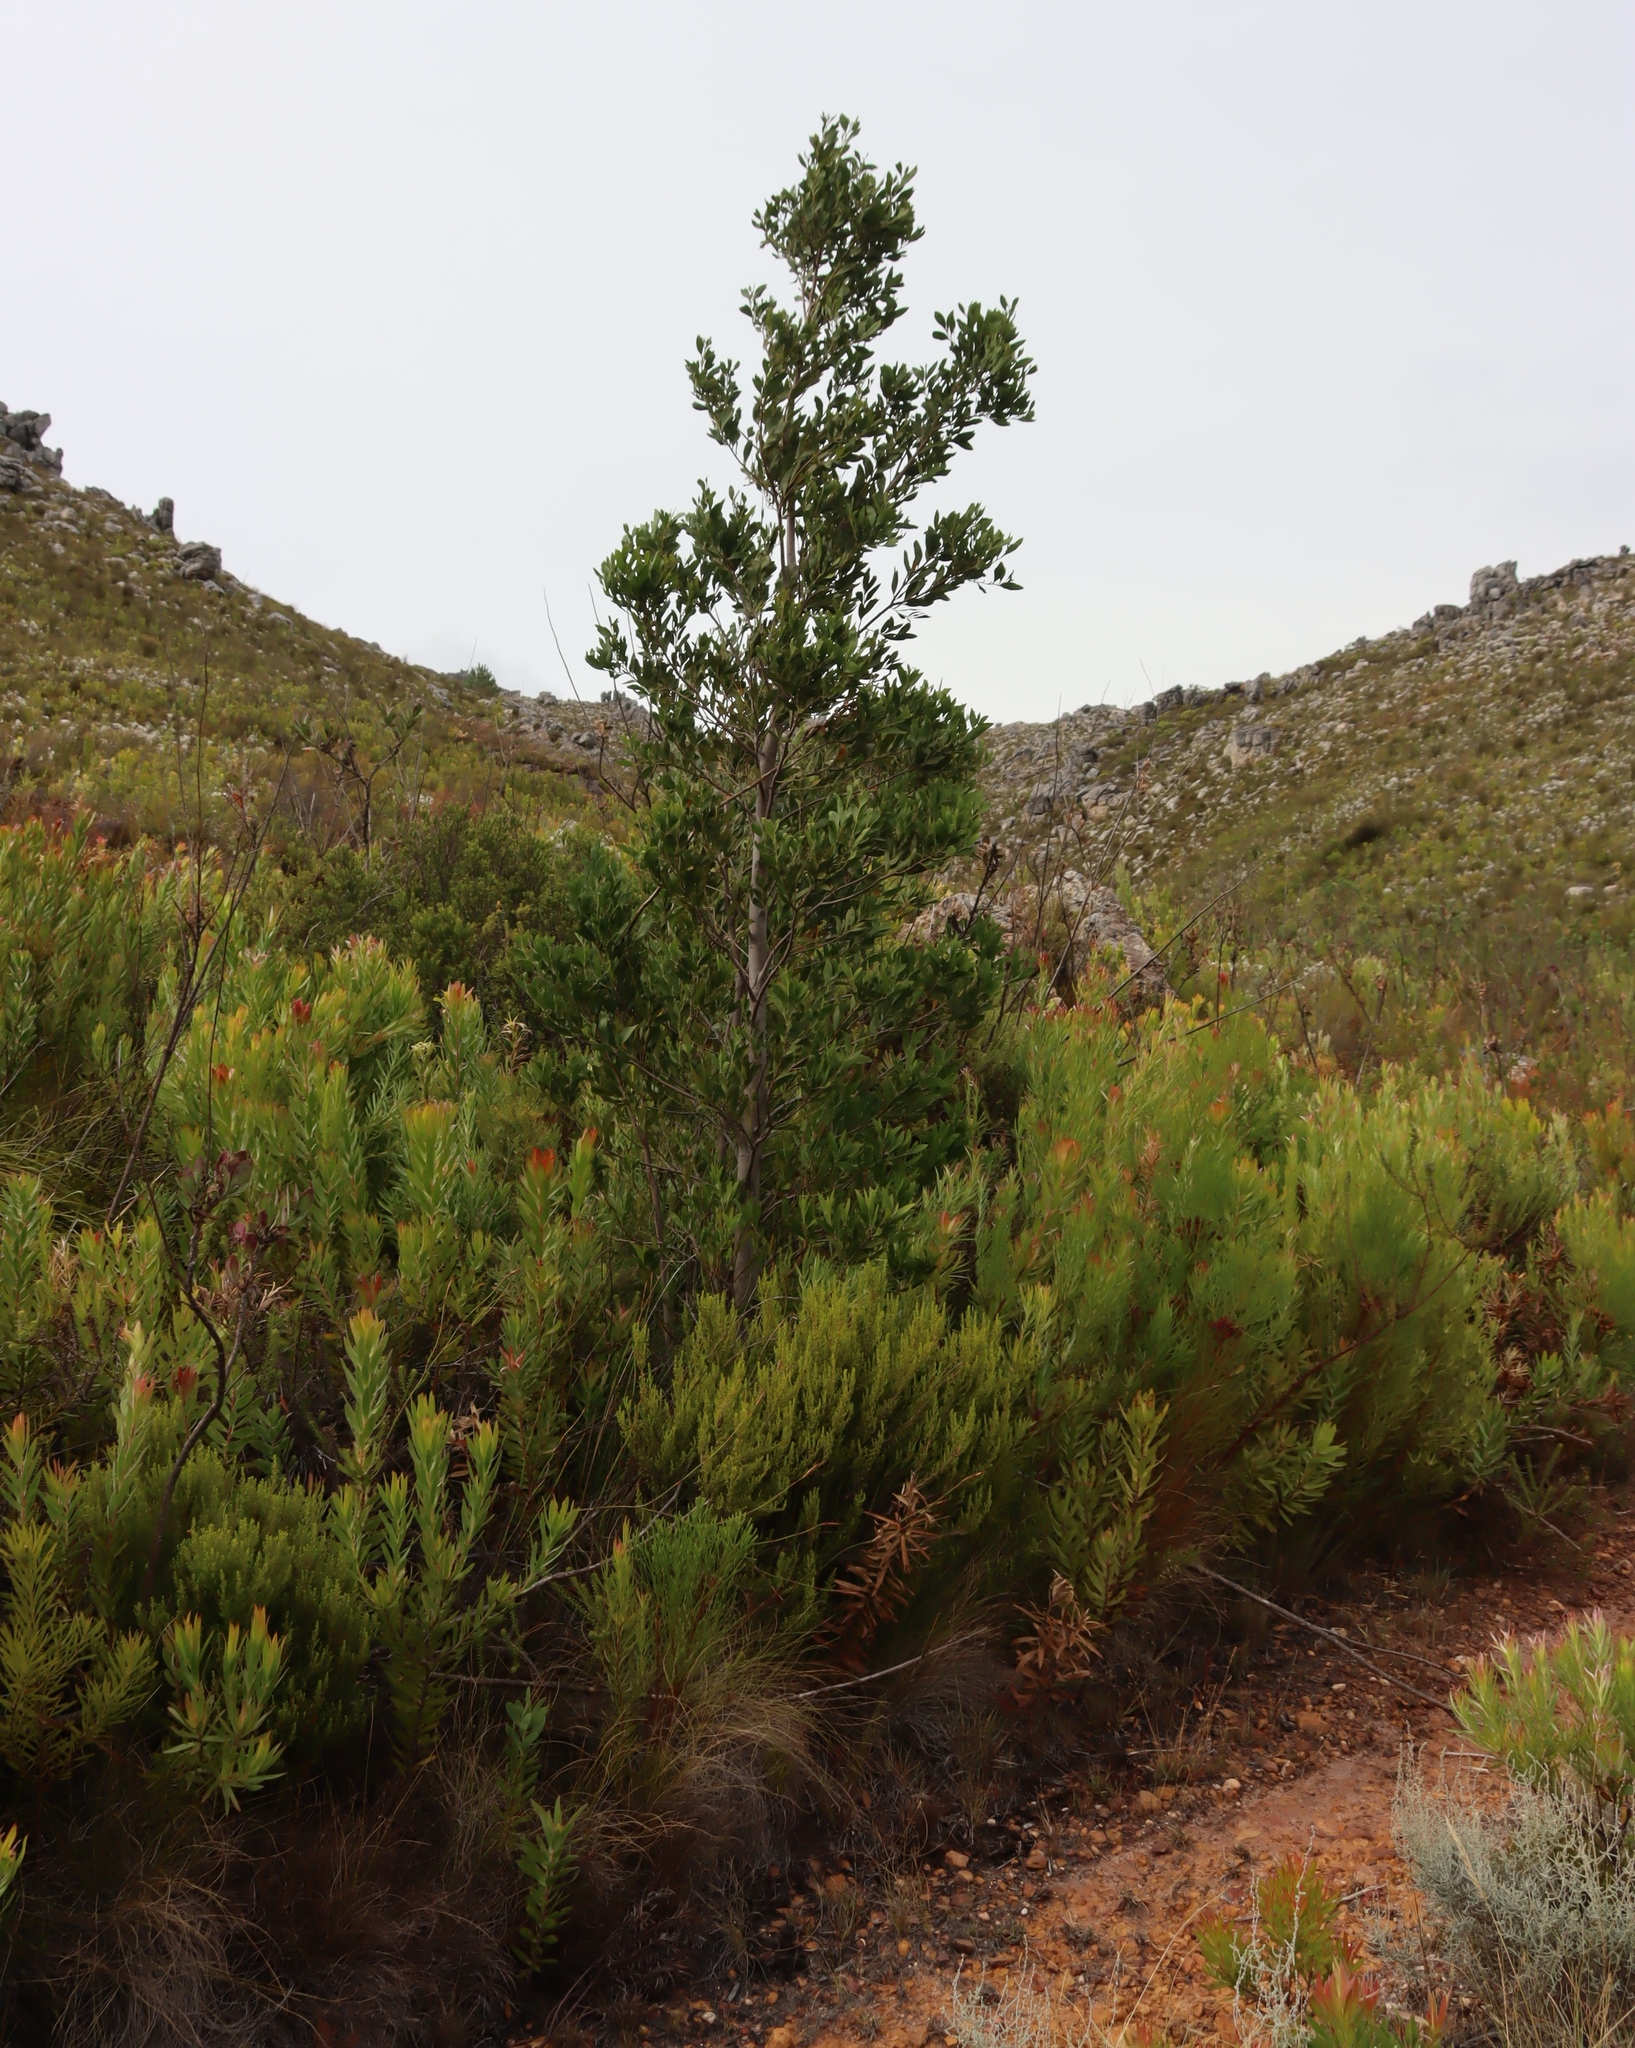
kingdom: Plantae
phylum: Tracheophyta
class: Magnoliopsida
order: Fabales
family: Fabaceae
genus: Acacia
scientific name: Acacia melanoxylon
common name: Blackwood
